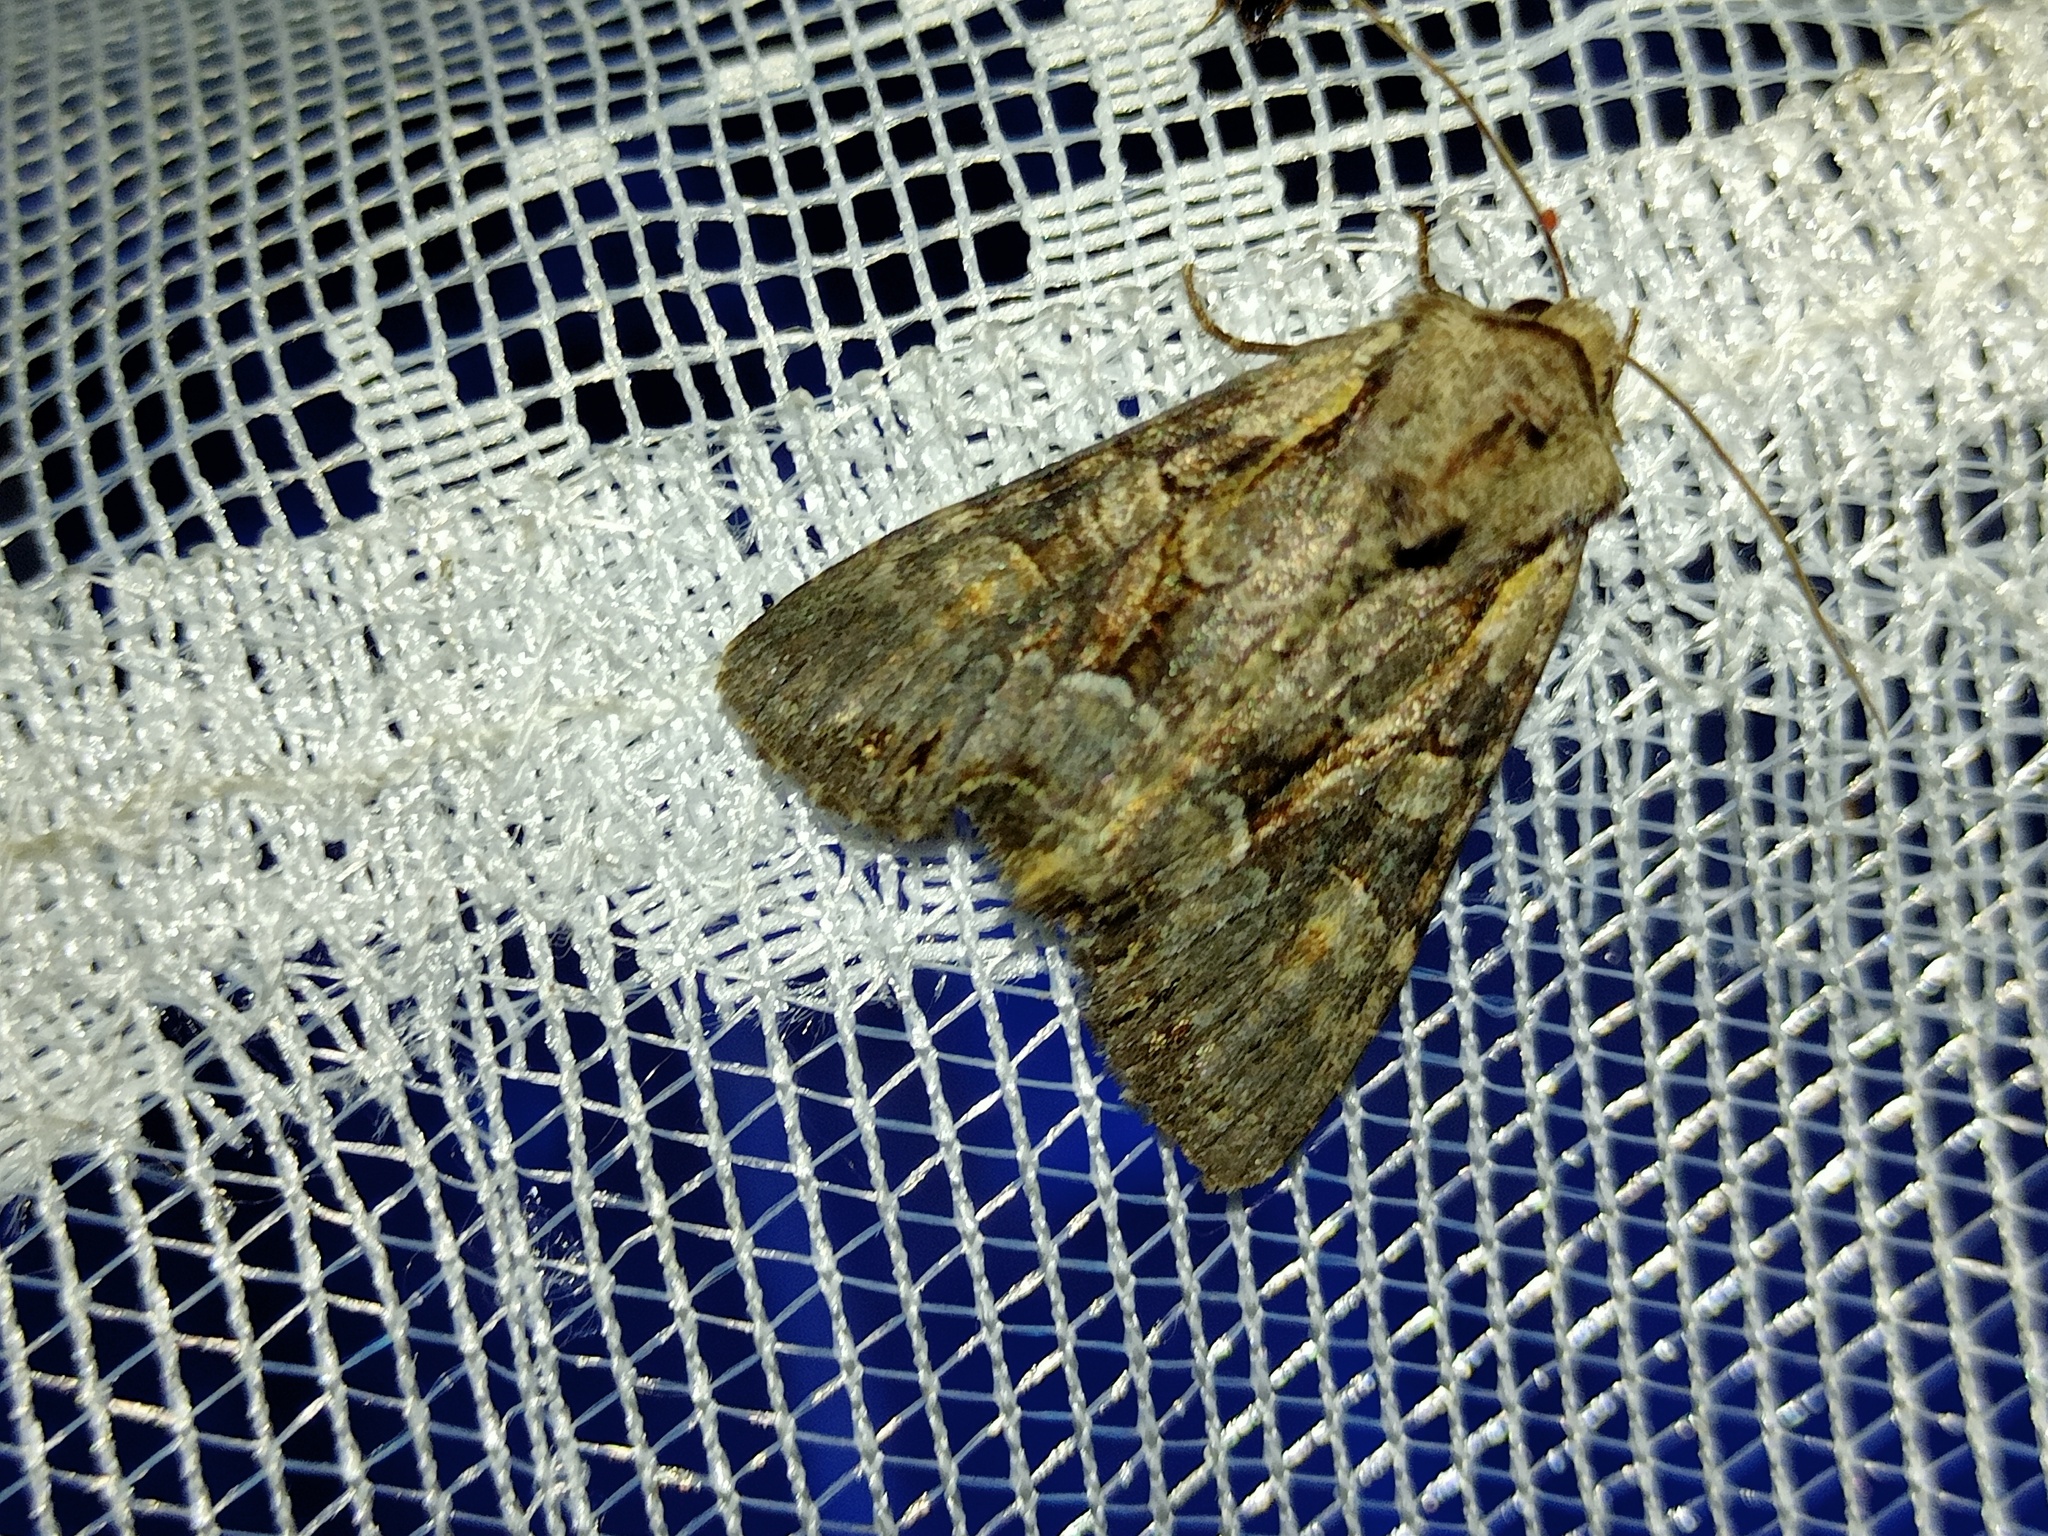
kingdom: Animalia
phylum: Arthropoda
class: Insecta
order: Lepidoptera
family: Noctuidae
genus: Lacanobia
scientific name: Lacanobia w-latinum
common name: Light brocade
